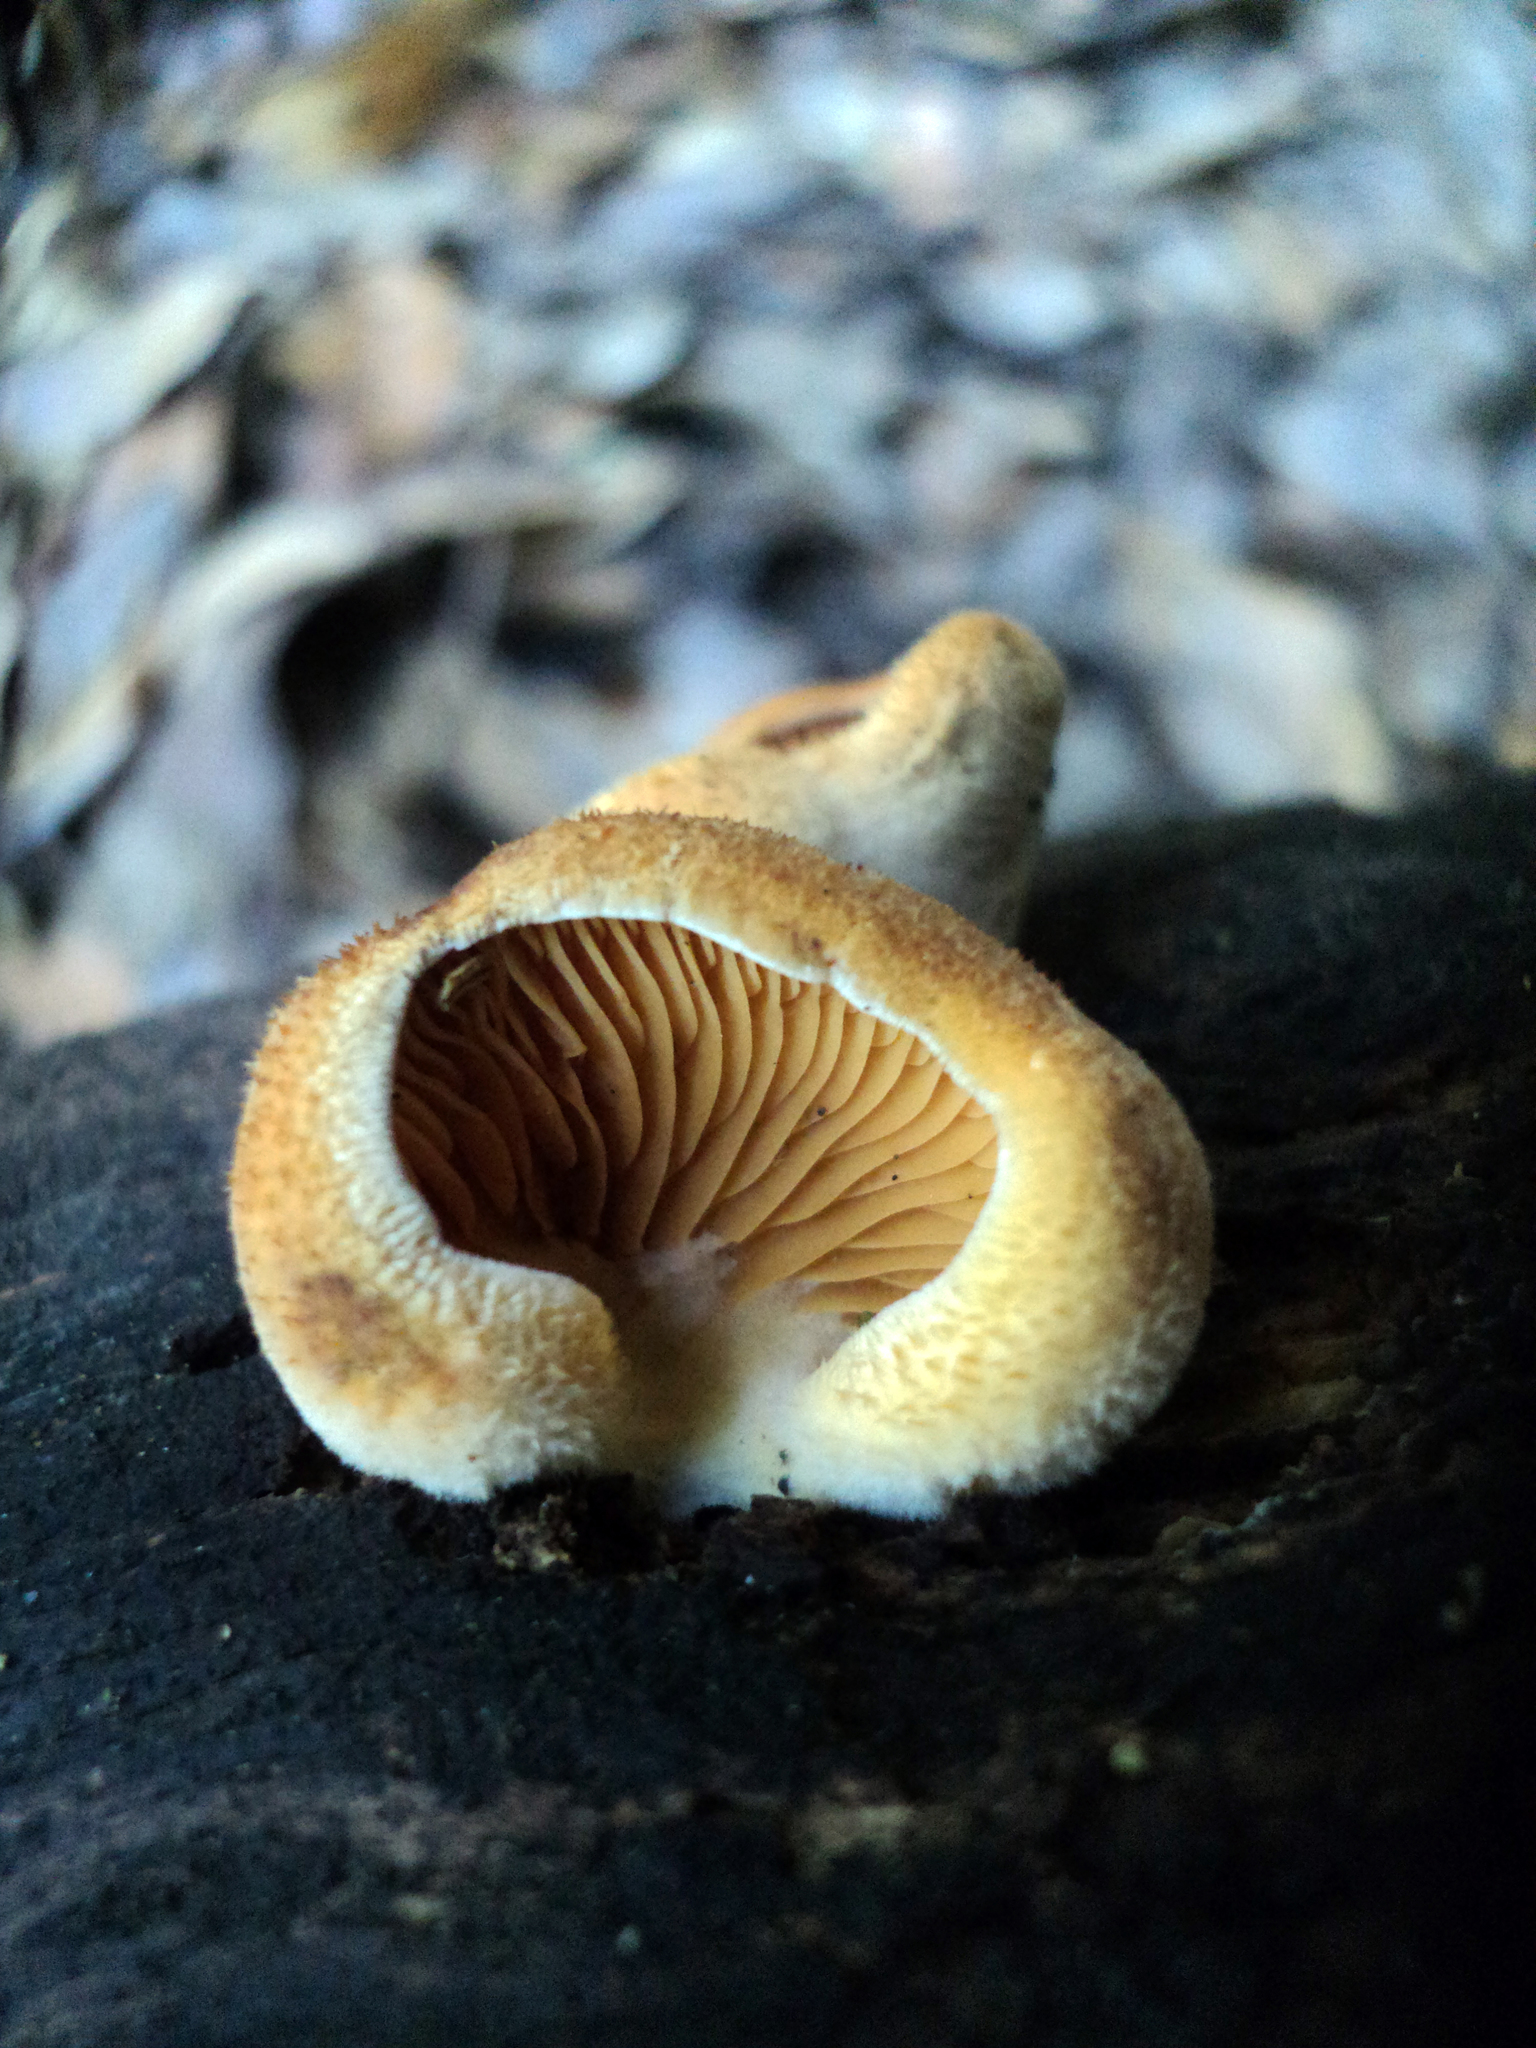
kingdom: Fungi
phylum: Basidiomycota
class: Agaricomycetes
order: Agaricales
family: Phyllotopsidaceae
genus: Phyllotopsis
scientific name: Phyllotopsis nidulans
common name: Orange mock oyster
